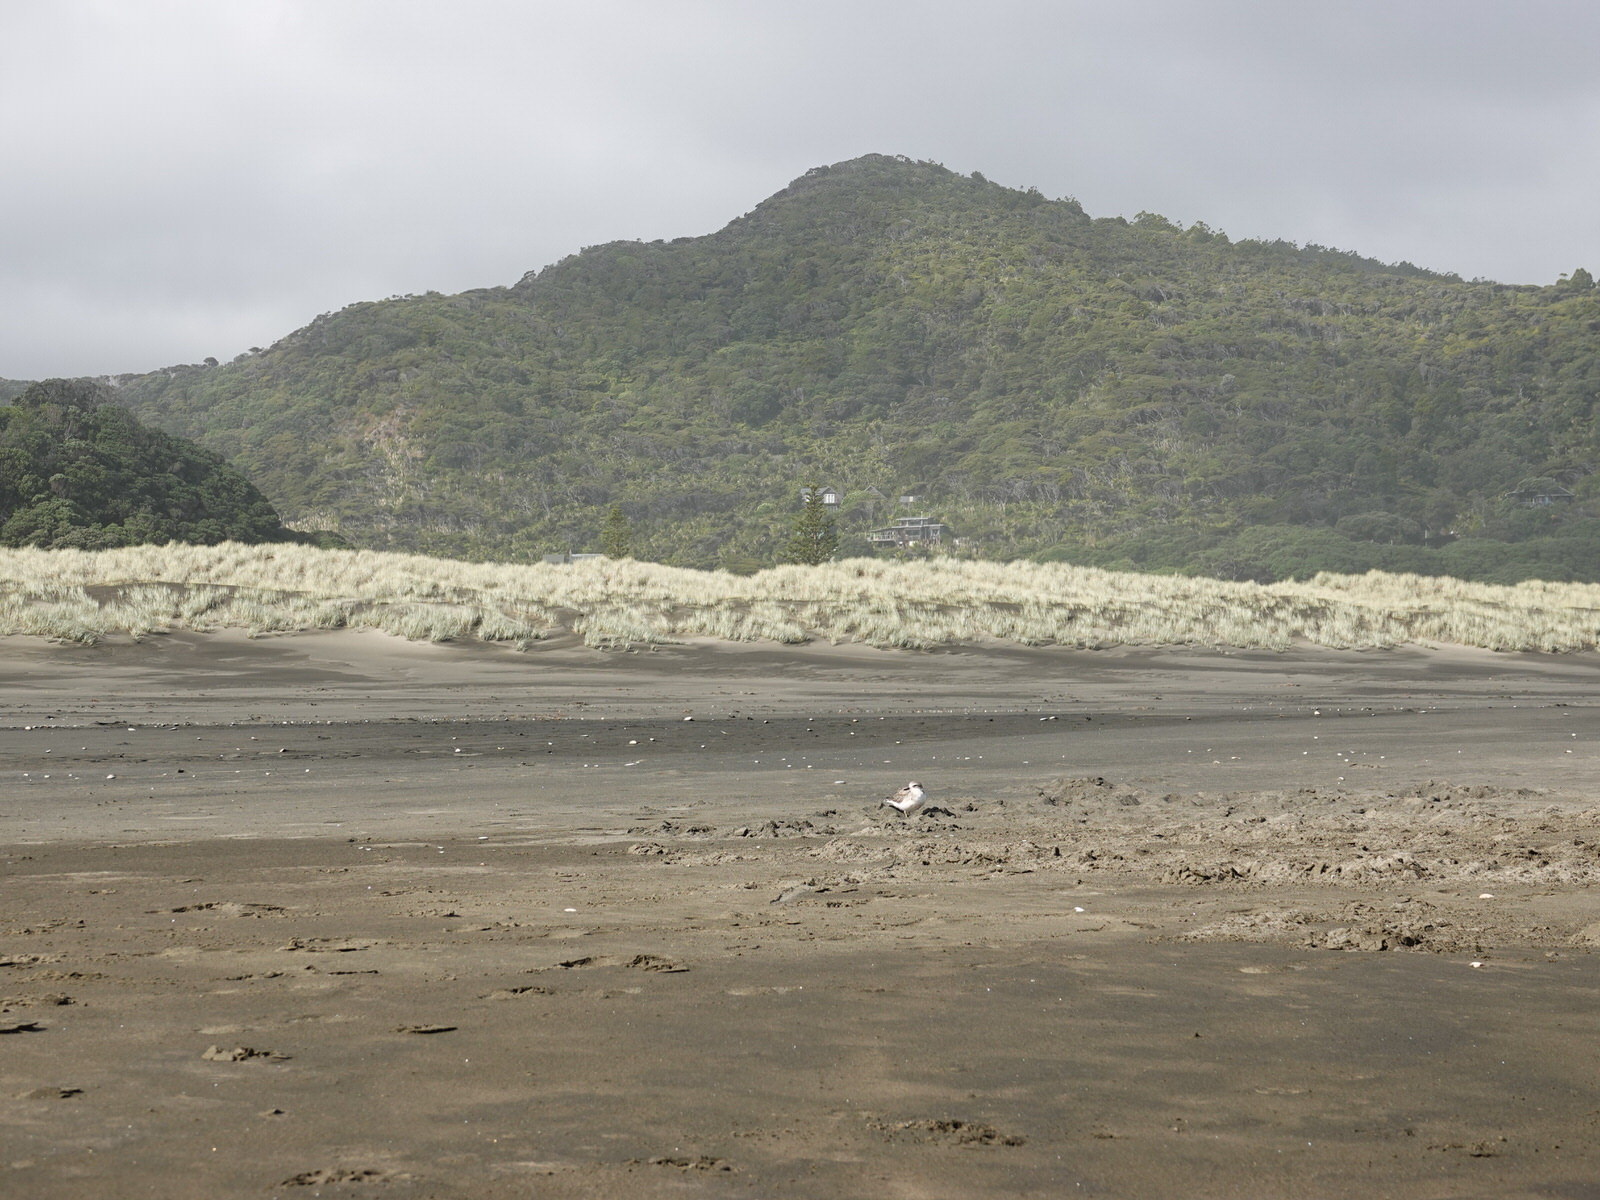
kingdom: Animalia
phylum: Chordata
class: Aves
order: Charadriiformes
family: Charadriidae
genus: Anarhynchus
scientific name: Anarhynchus
